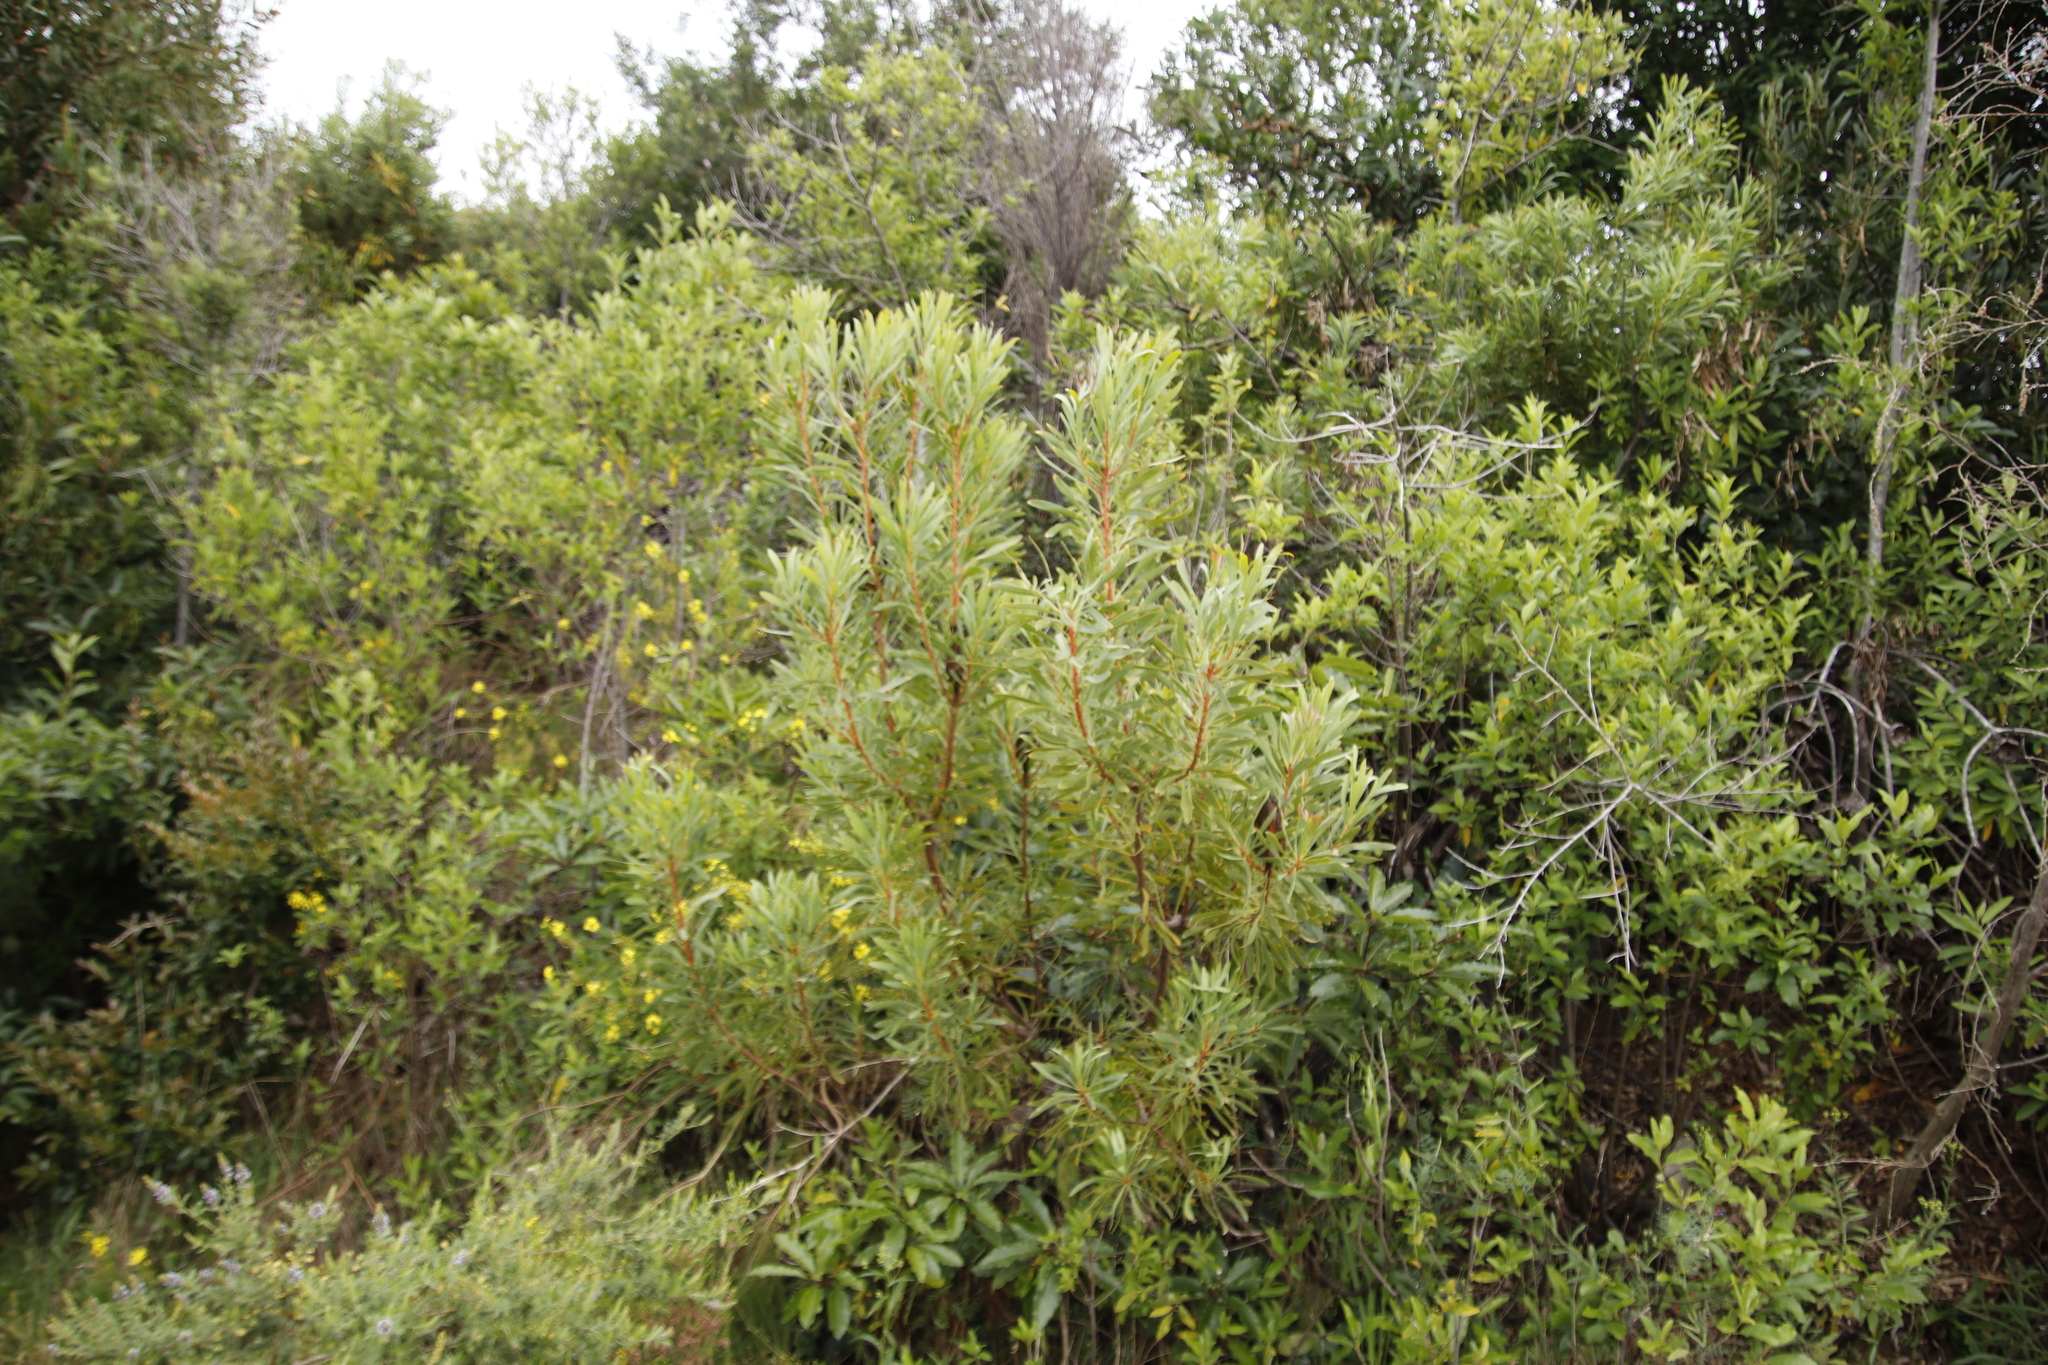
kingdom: Plantae
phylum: Tracheophyta
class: Magnoliopsida
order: Proteales
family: Proteaceae
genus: Protea
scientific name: Protea repens
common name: Sugarbush
